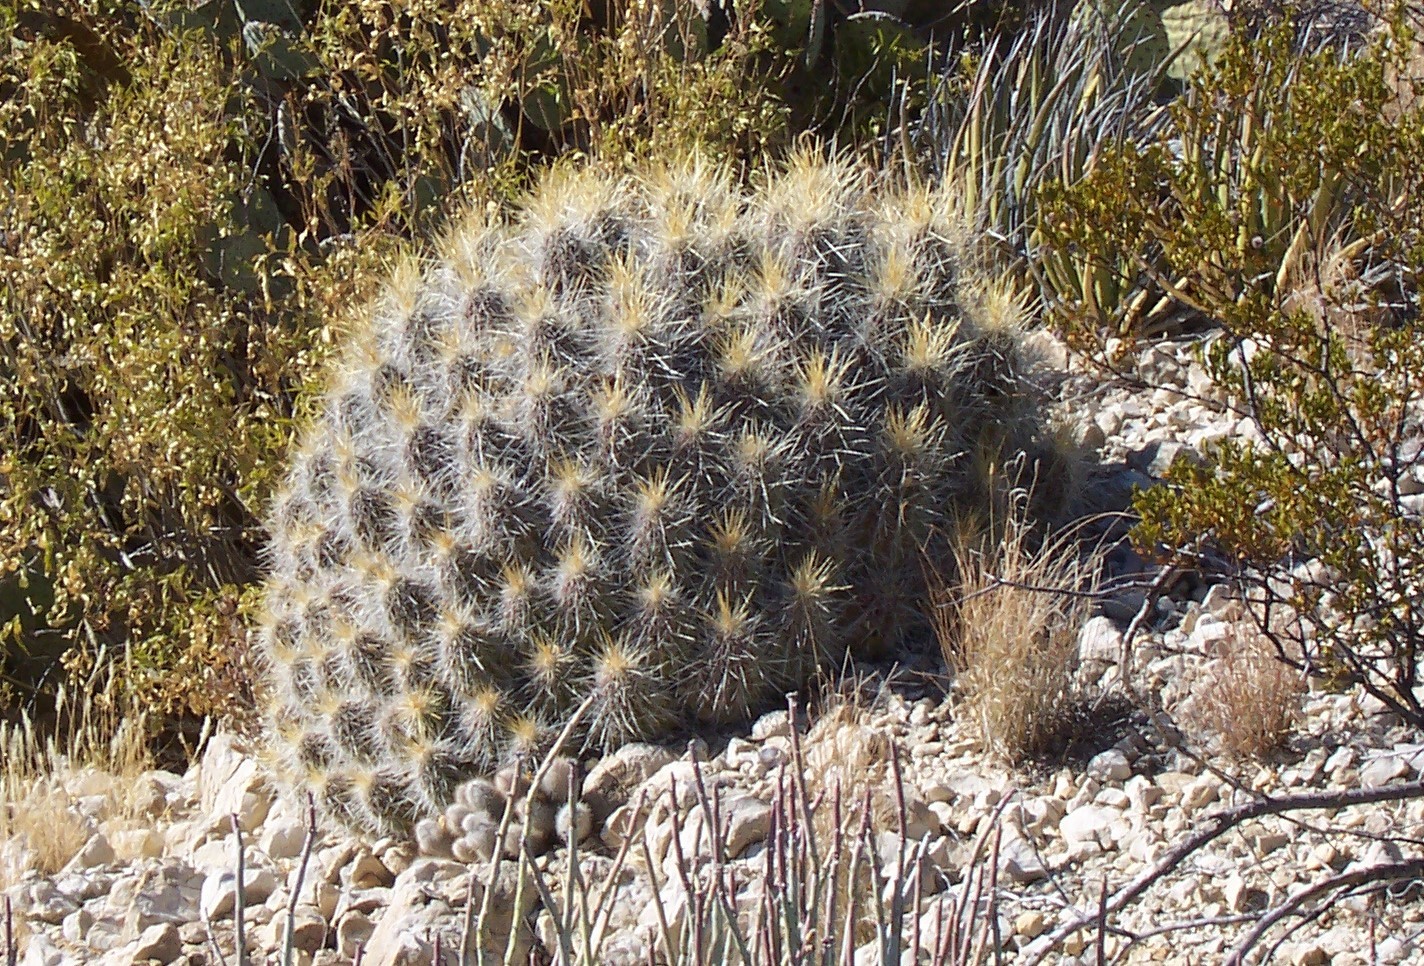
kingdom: Plantae
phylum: Tracheophyta
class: Magnoliopsida
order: Caryophyllales
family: Cactaceae
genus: Echinocereus
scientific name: Echinocereus stramineus
